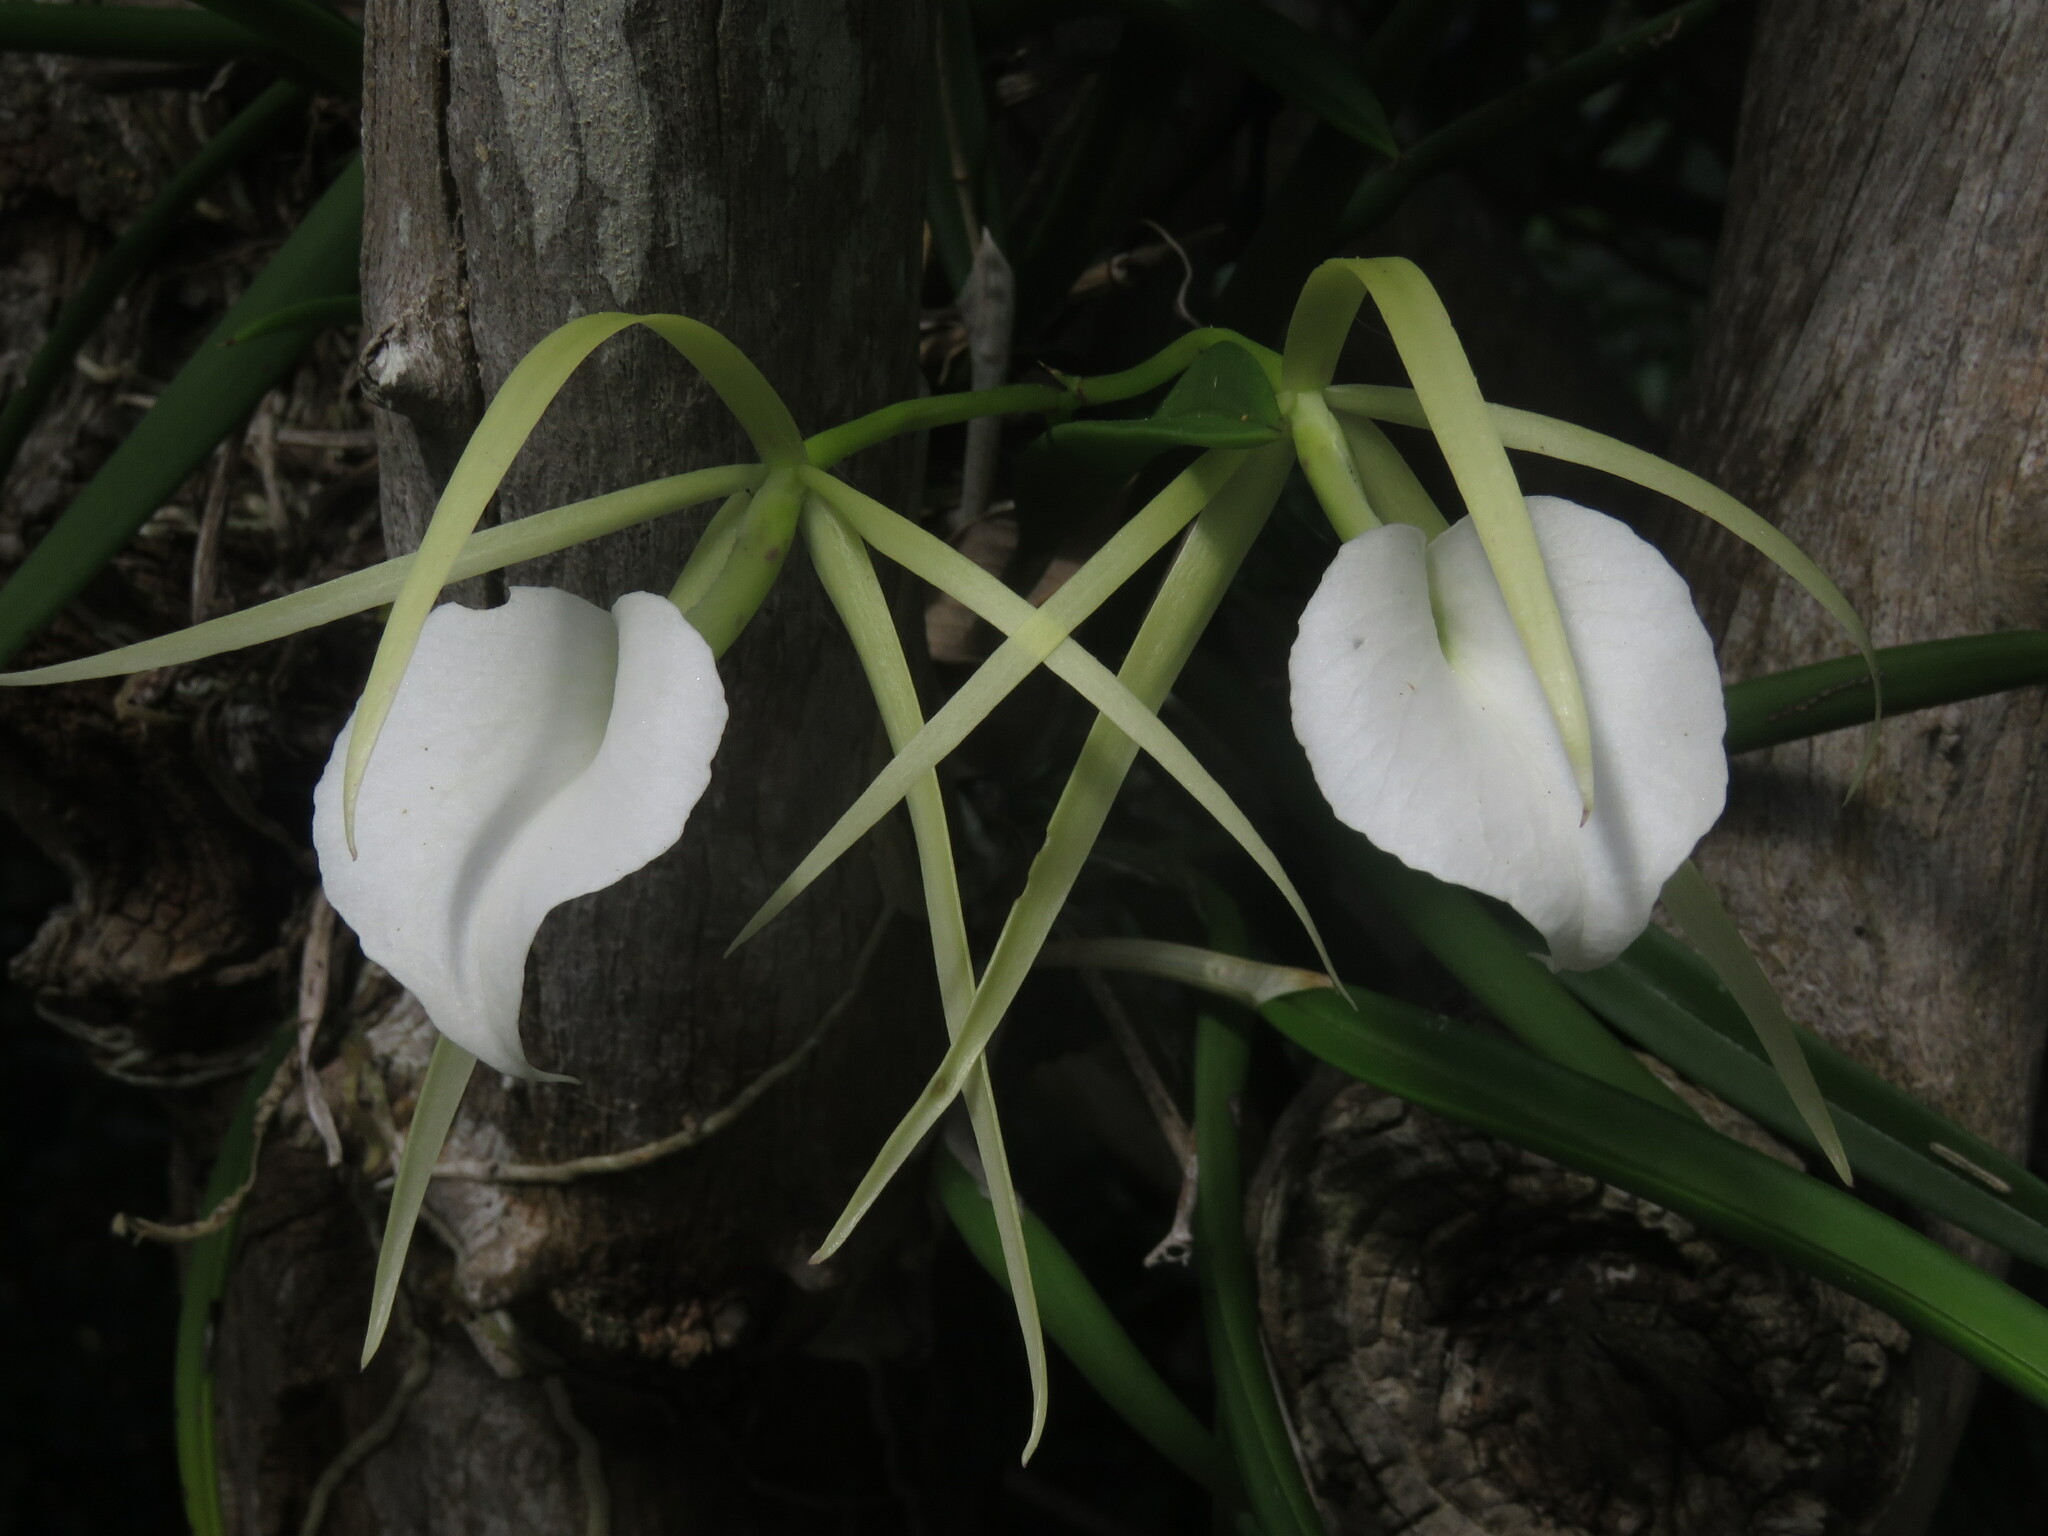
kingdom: Plantae
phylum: Tracheophyta
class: Liliopsida
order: Asparagales
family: Orchidaceae
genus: Brassavola
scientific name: Brassavola nodosa
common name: Lady of the night
